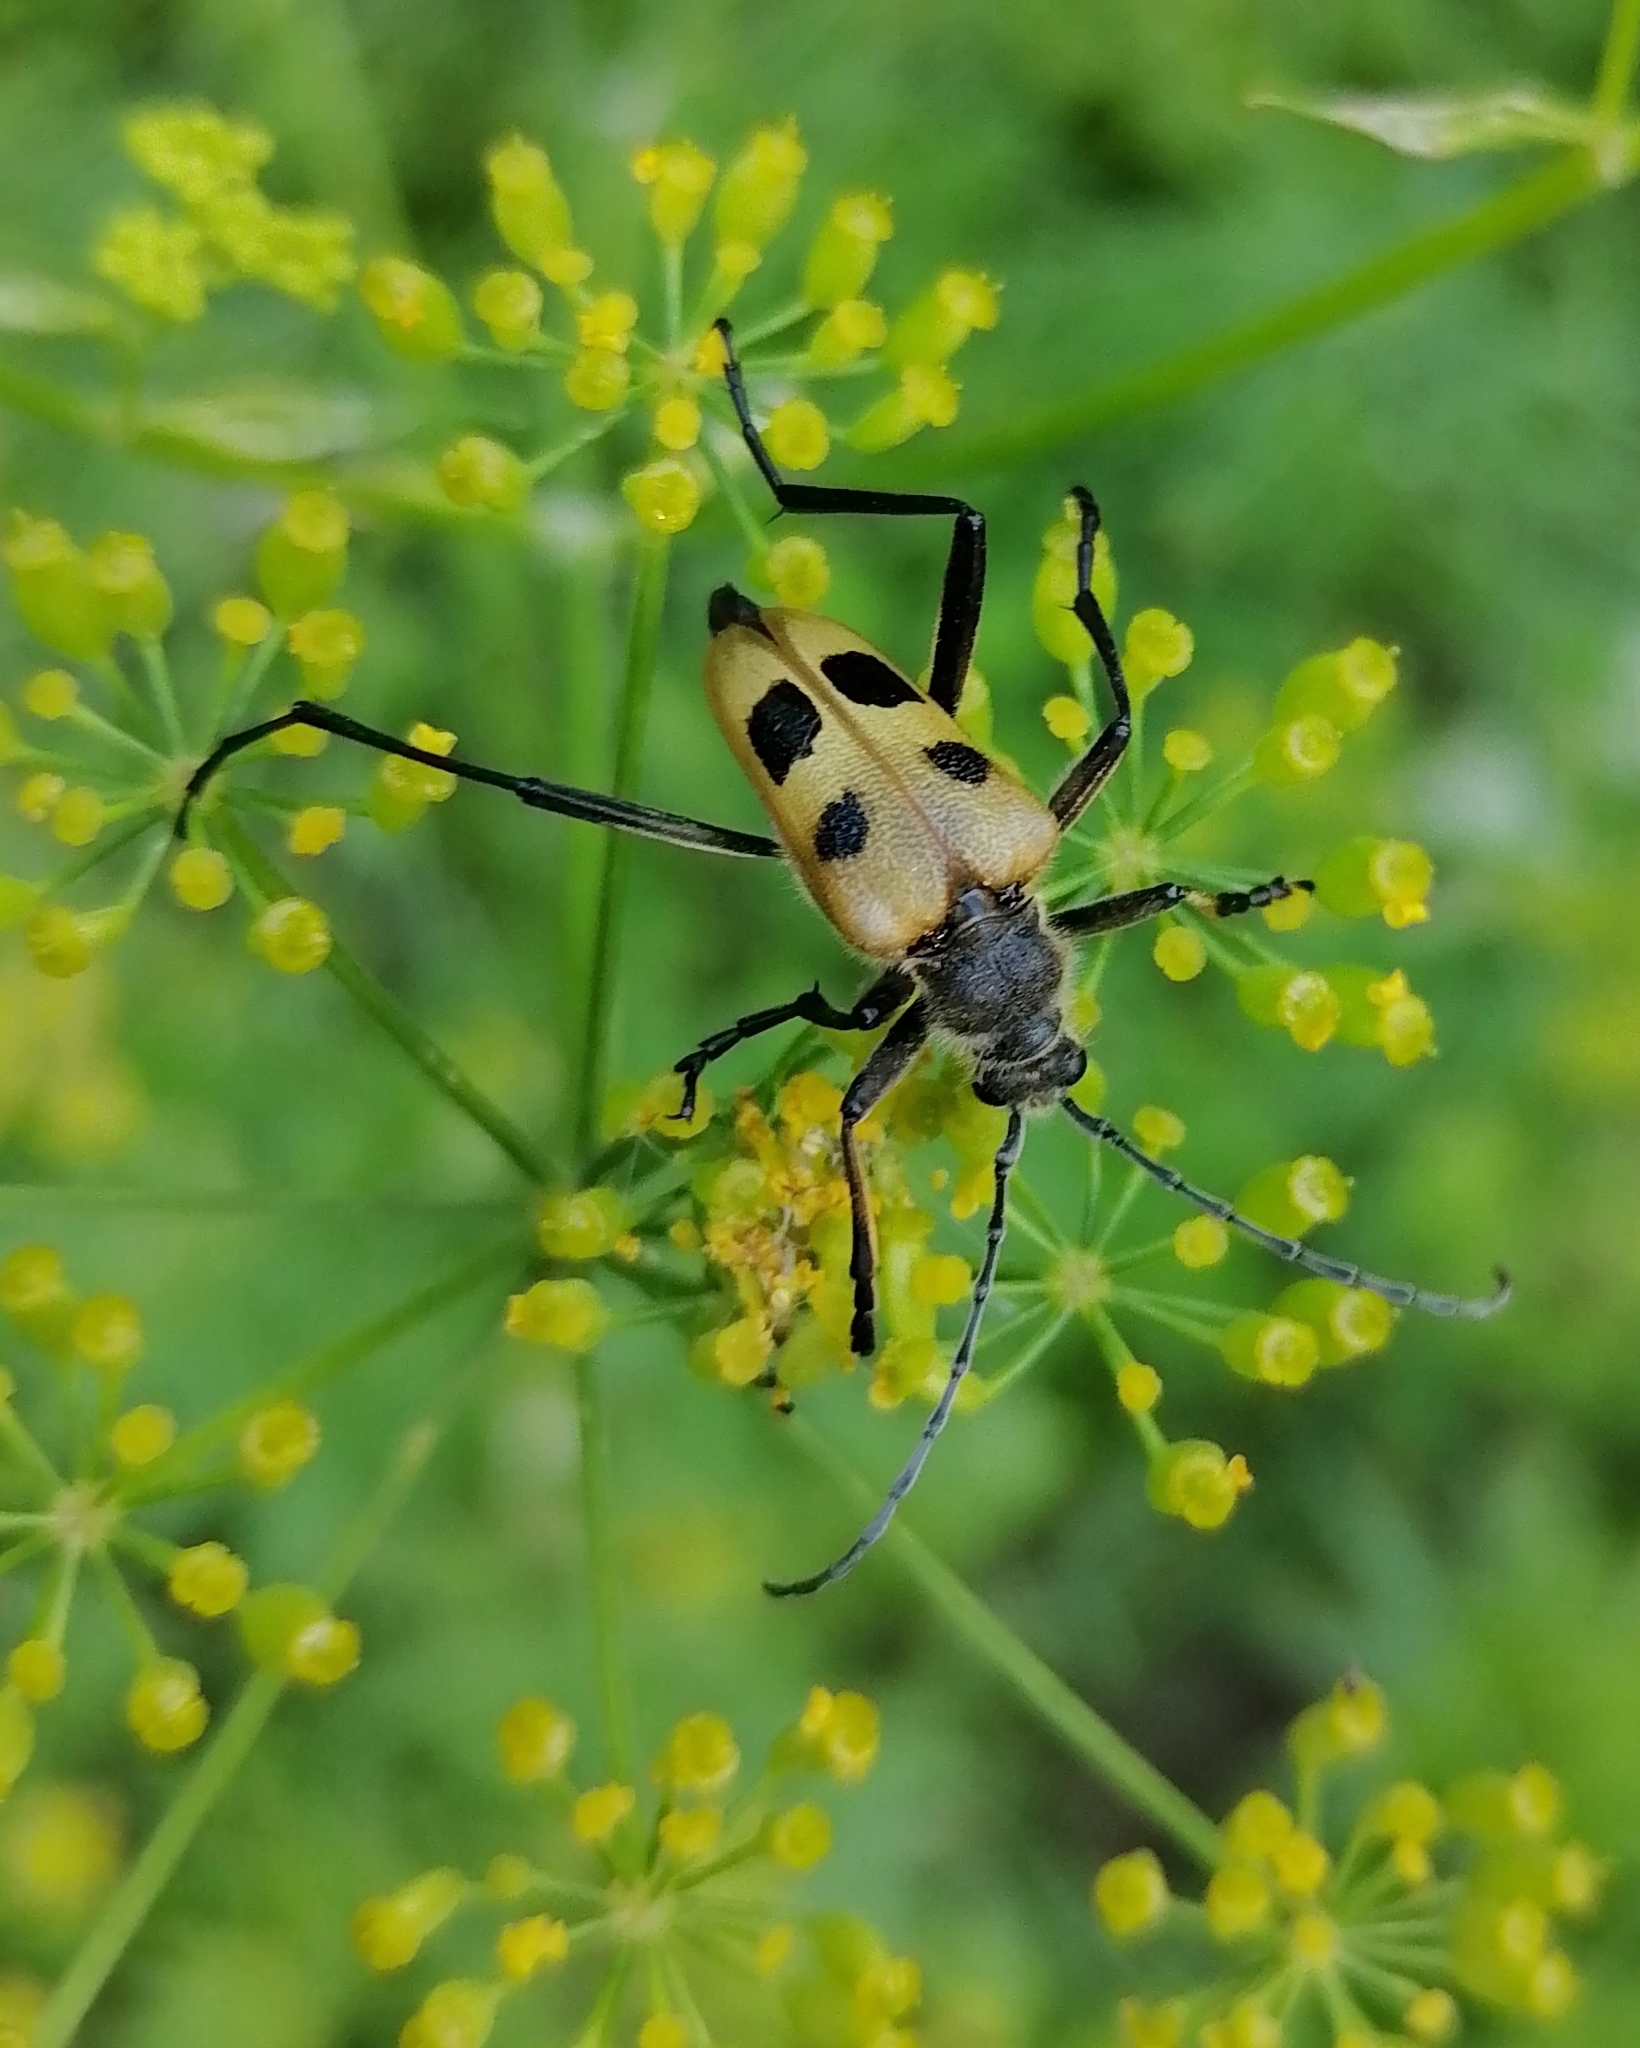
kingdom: Animalia
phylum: Arthropoda
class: Insecta
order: Coleoptera
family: Cerambycidae
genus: Pachyta
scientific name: Pachyta quadrimaculata
